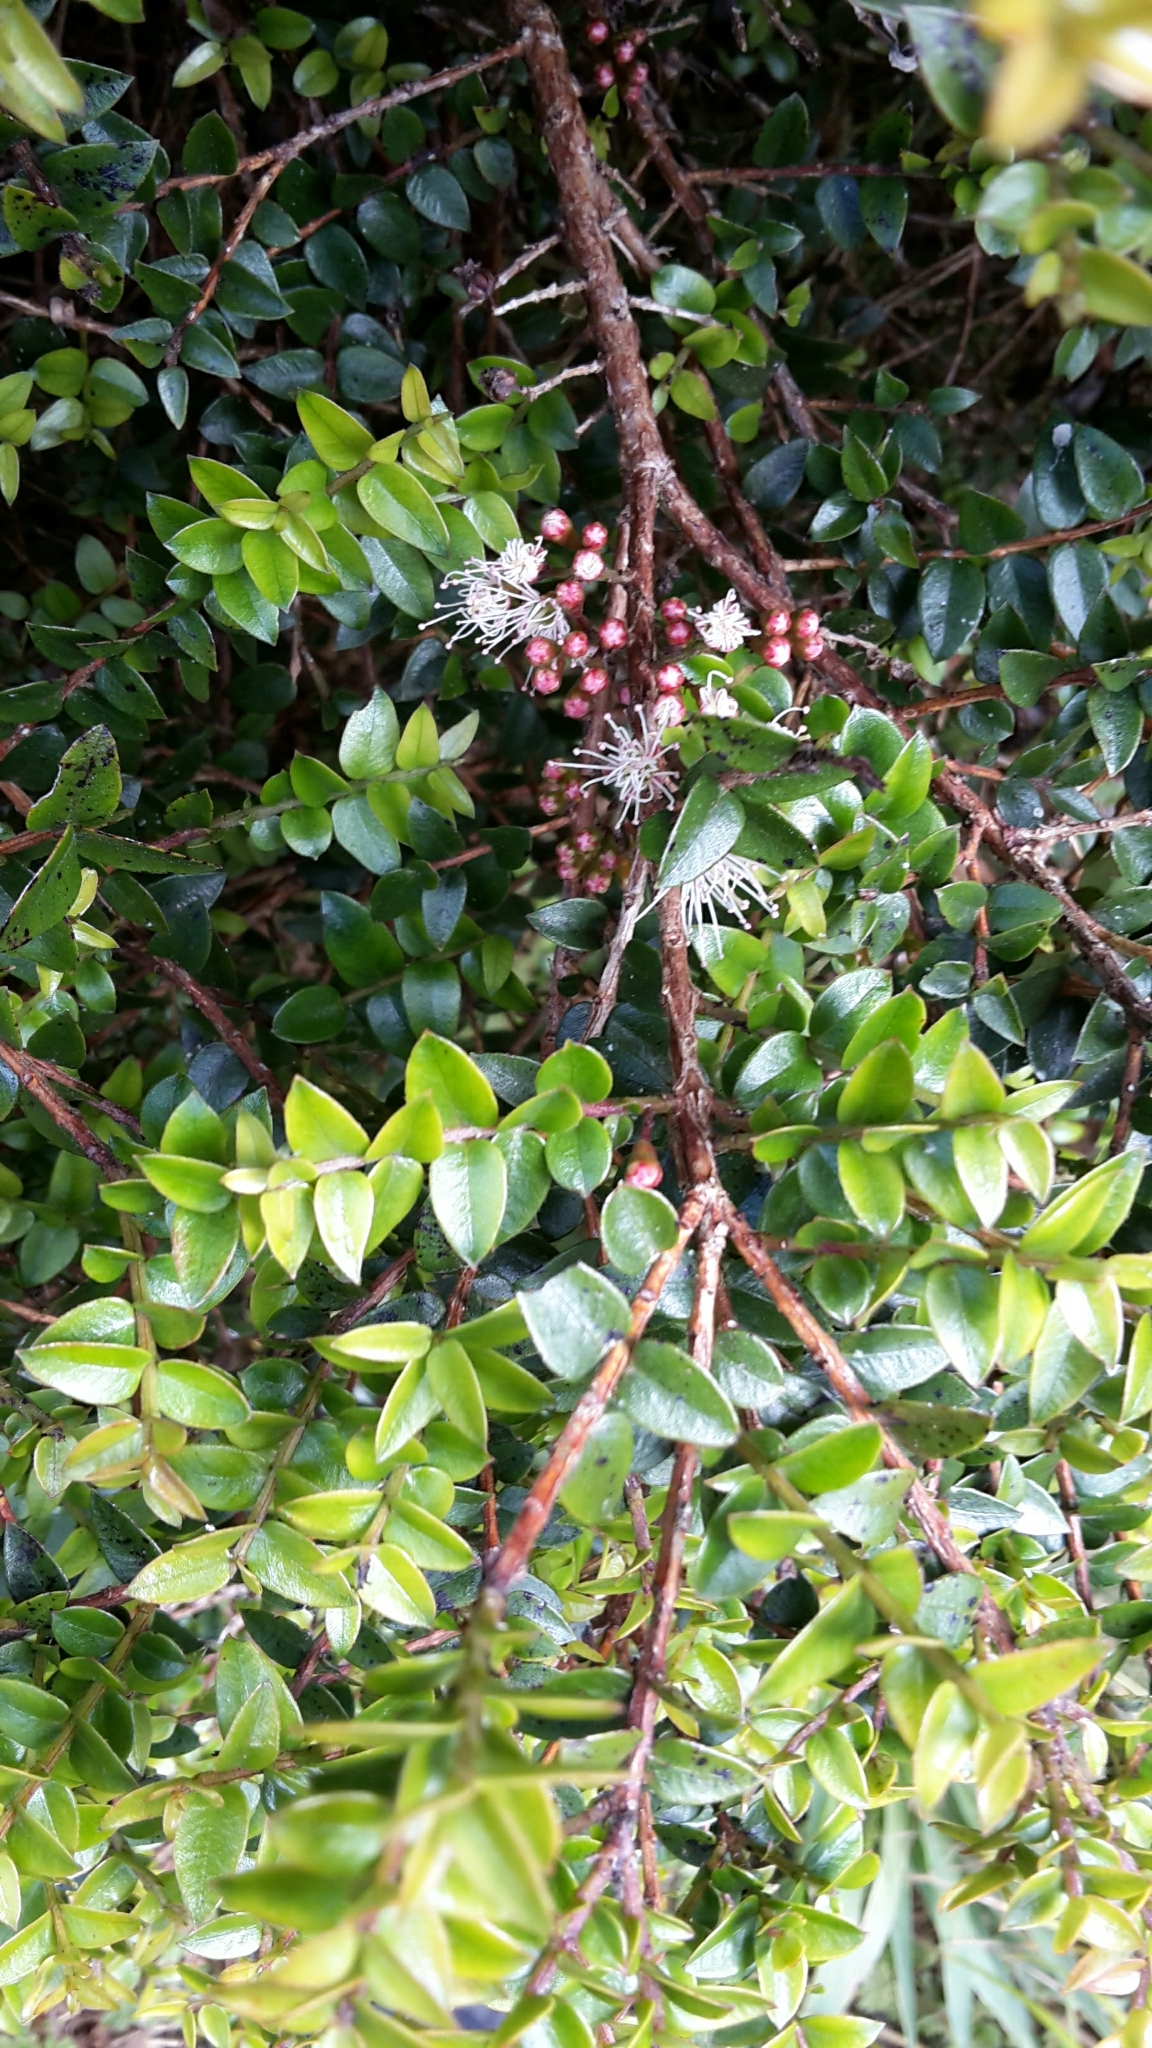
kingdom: Plantae
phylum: Tracheophyta
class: Magnoliopsida
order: Myrtales
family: Myrtaceae
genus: Metrosideros
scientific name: Metrosideros diffusa
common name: Small ratavine
